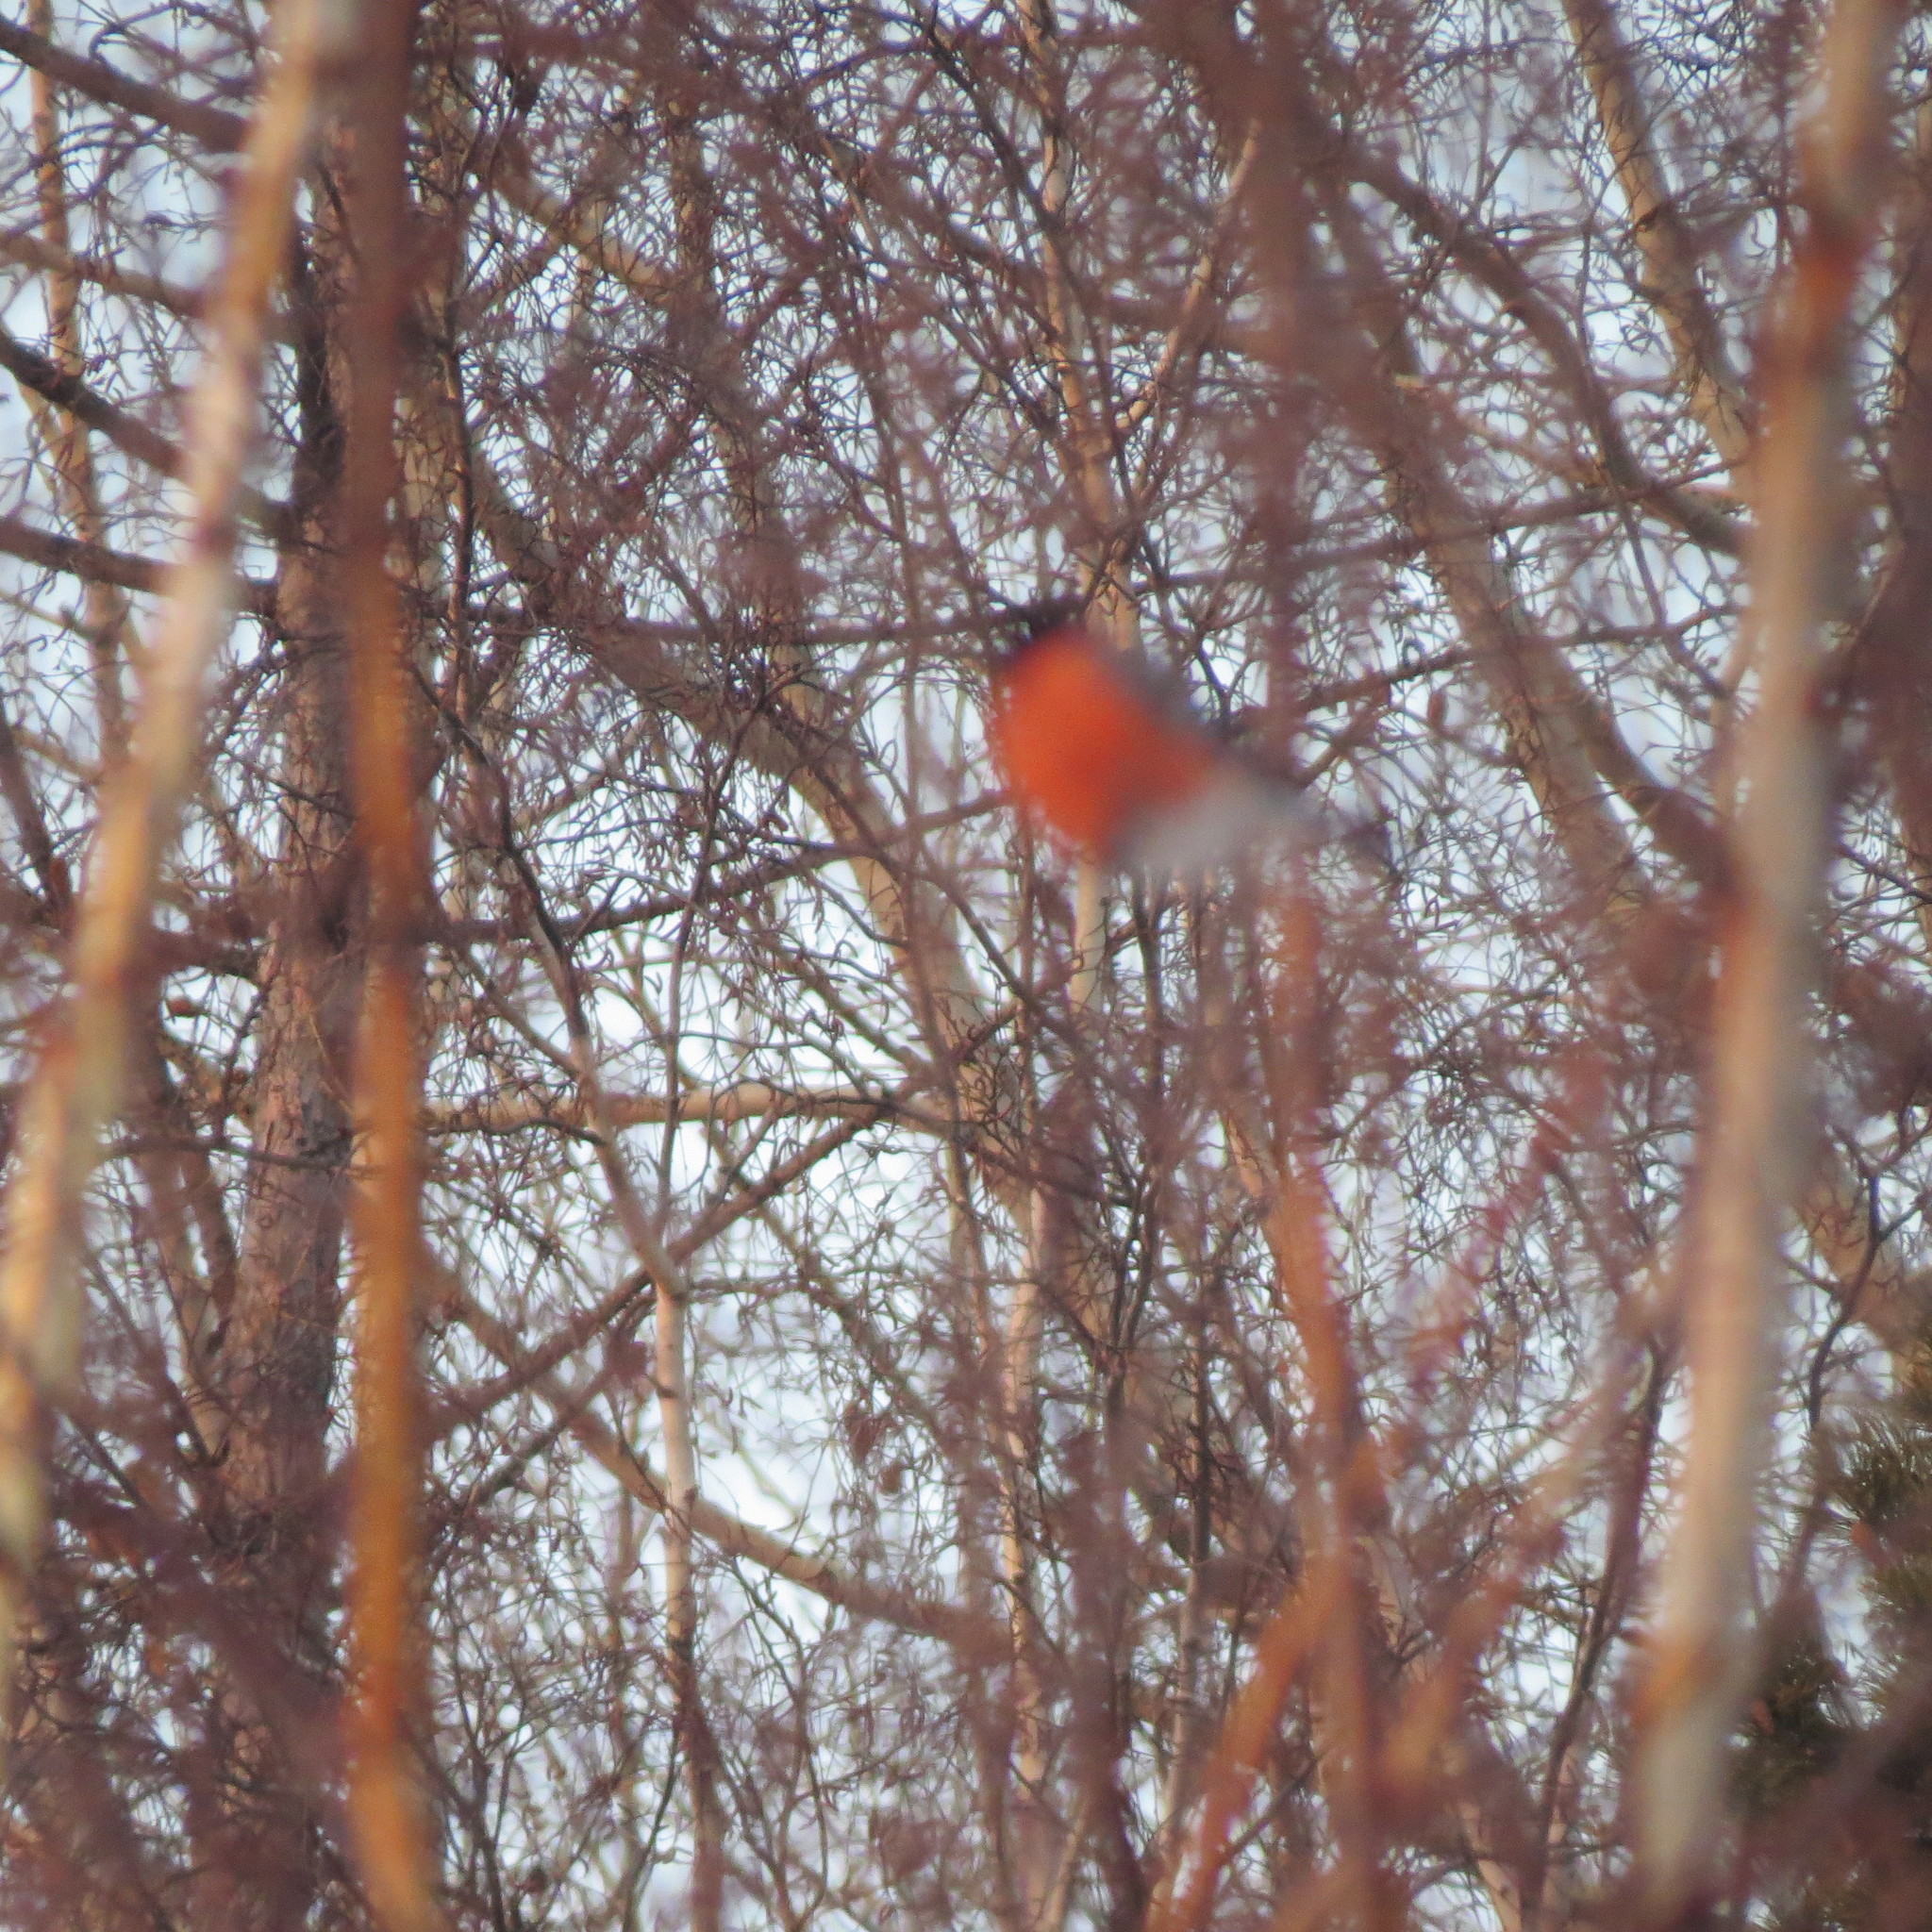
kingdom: Animalia
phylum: Chordata
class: Aves
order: Passeriformes
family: Fringillidae
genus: Pyrrhula
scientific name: Pyrrhula pyrrhula
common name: Eurasian bullfinch
